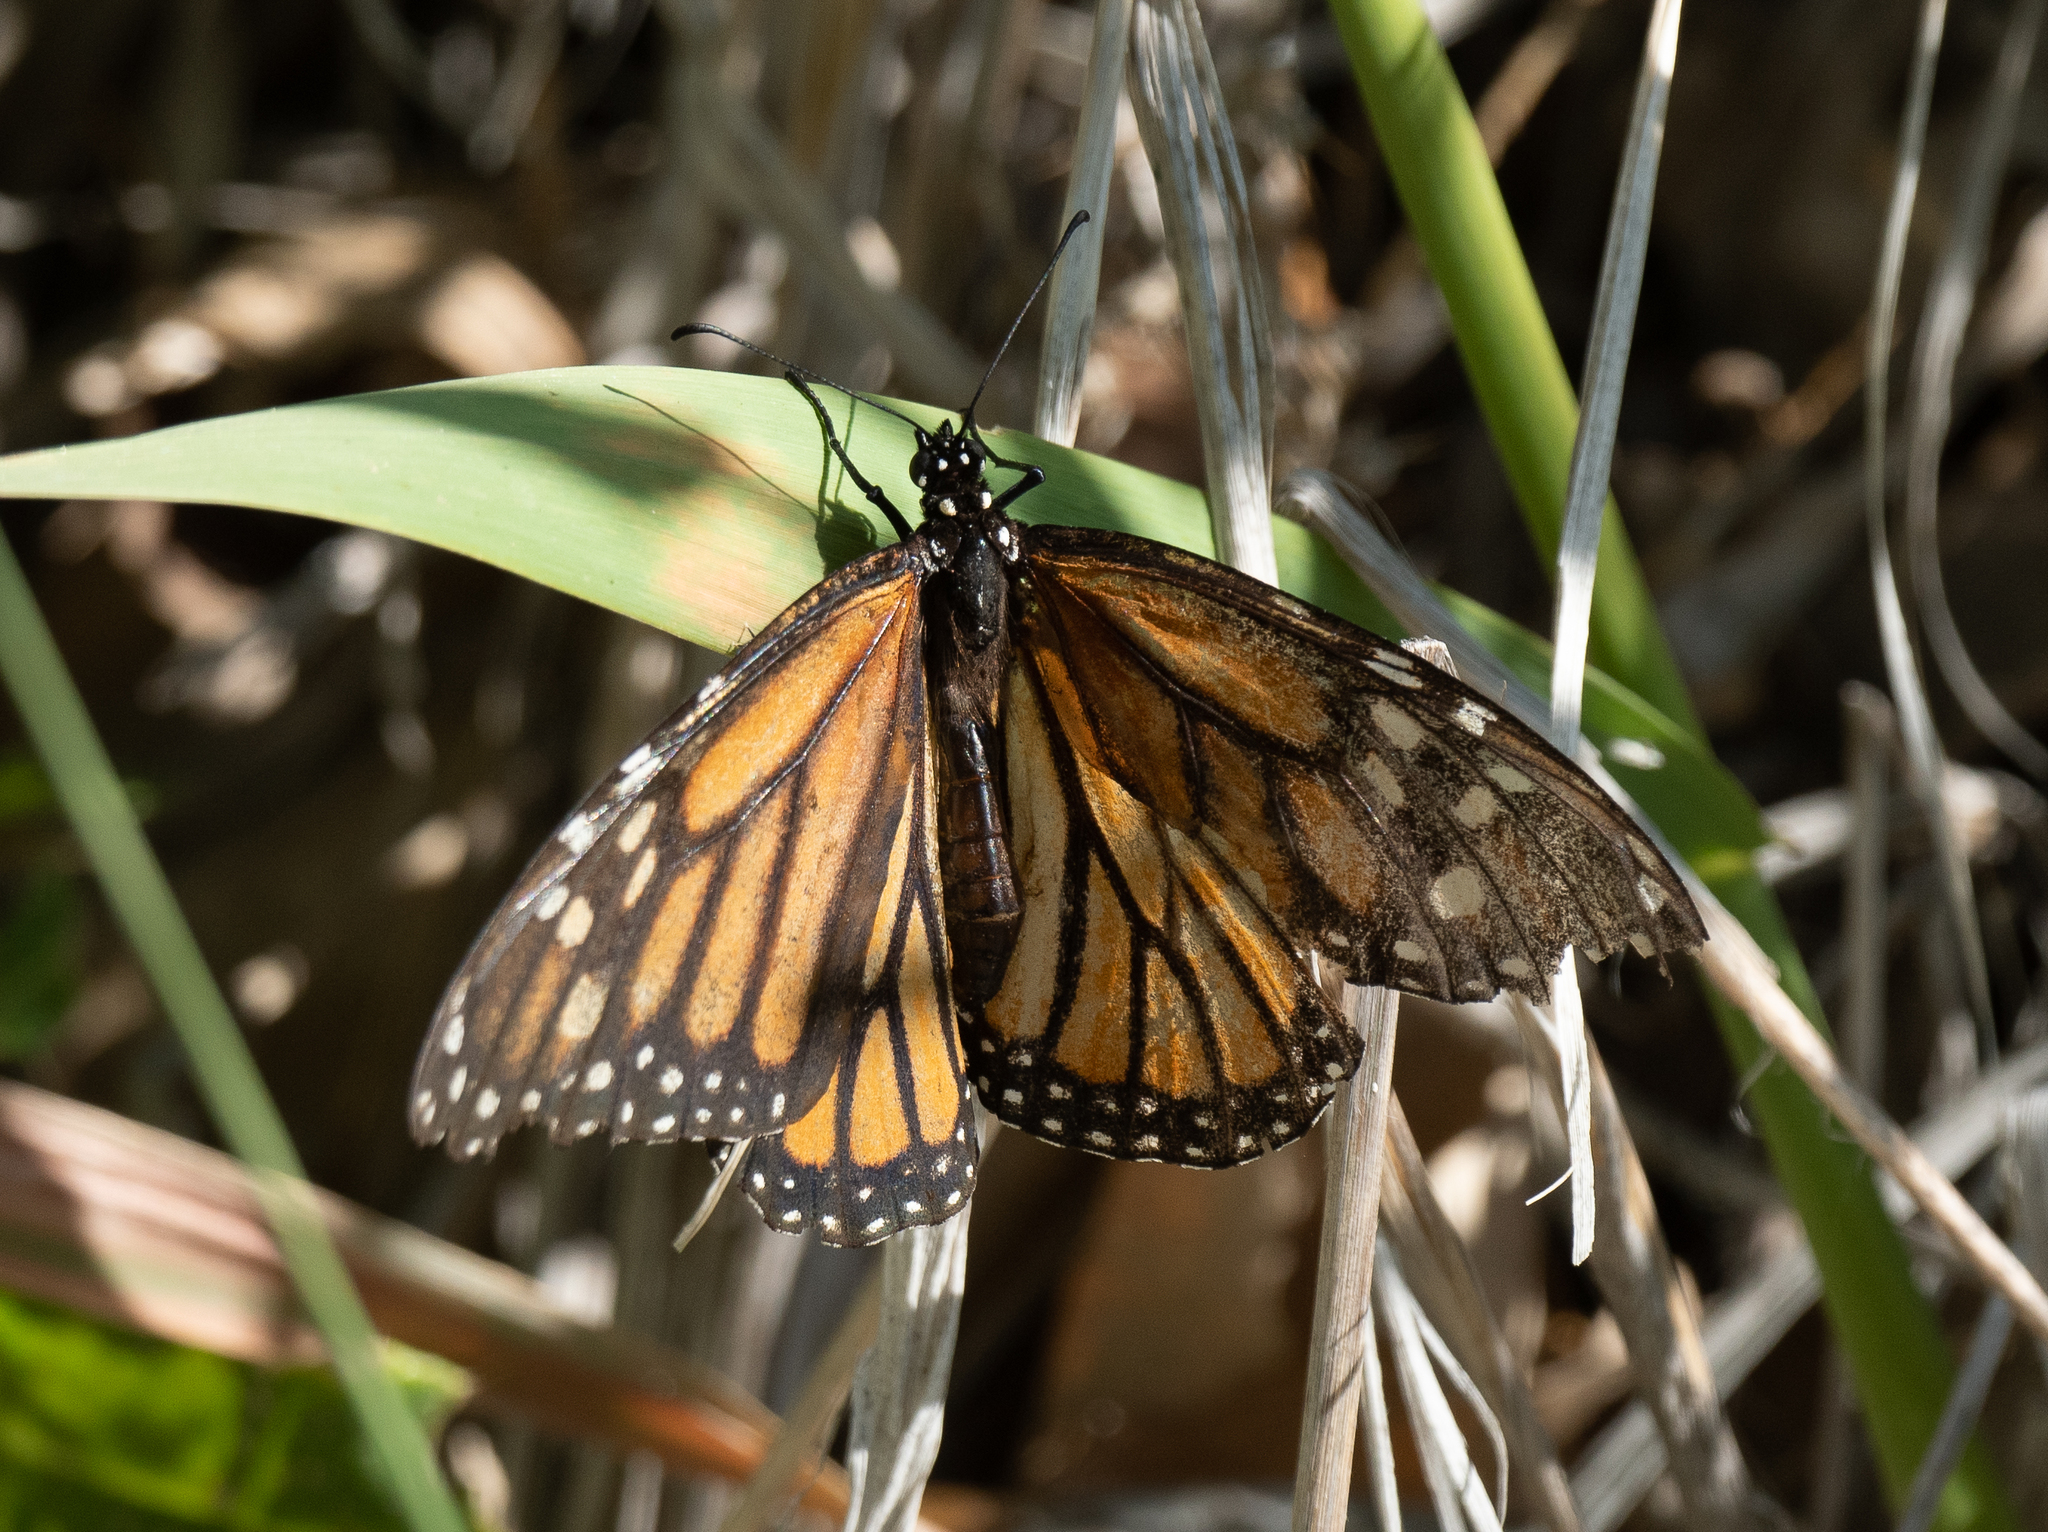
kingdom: Animalia
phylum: Arthropoda
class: Insecta
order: Lepidoptera
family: Nymphalidae
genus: Danaus
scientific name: Danaus plexippus
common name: Monarch
